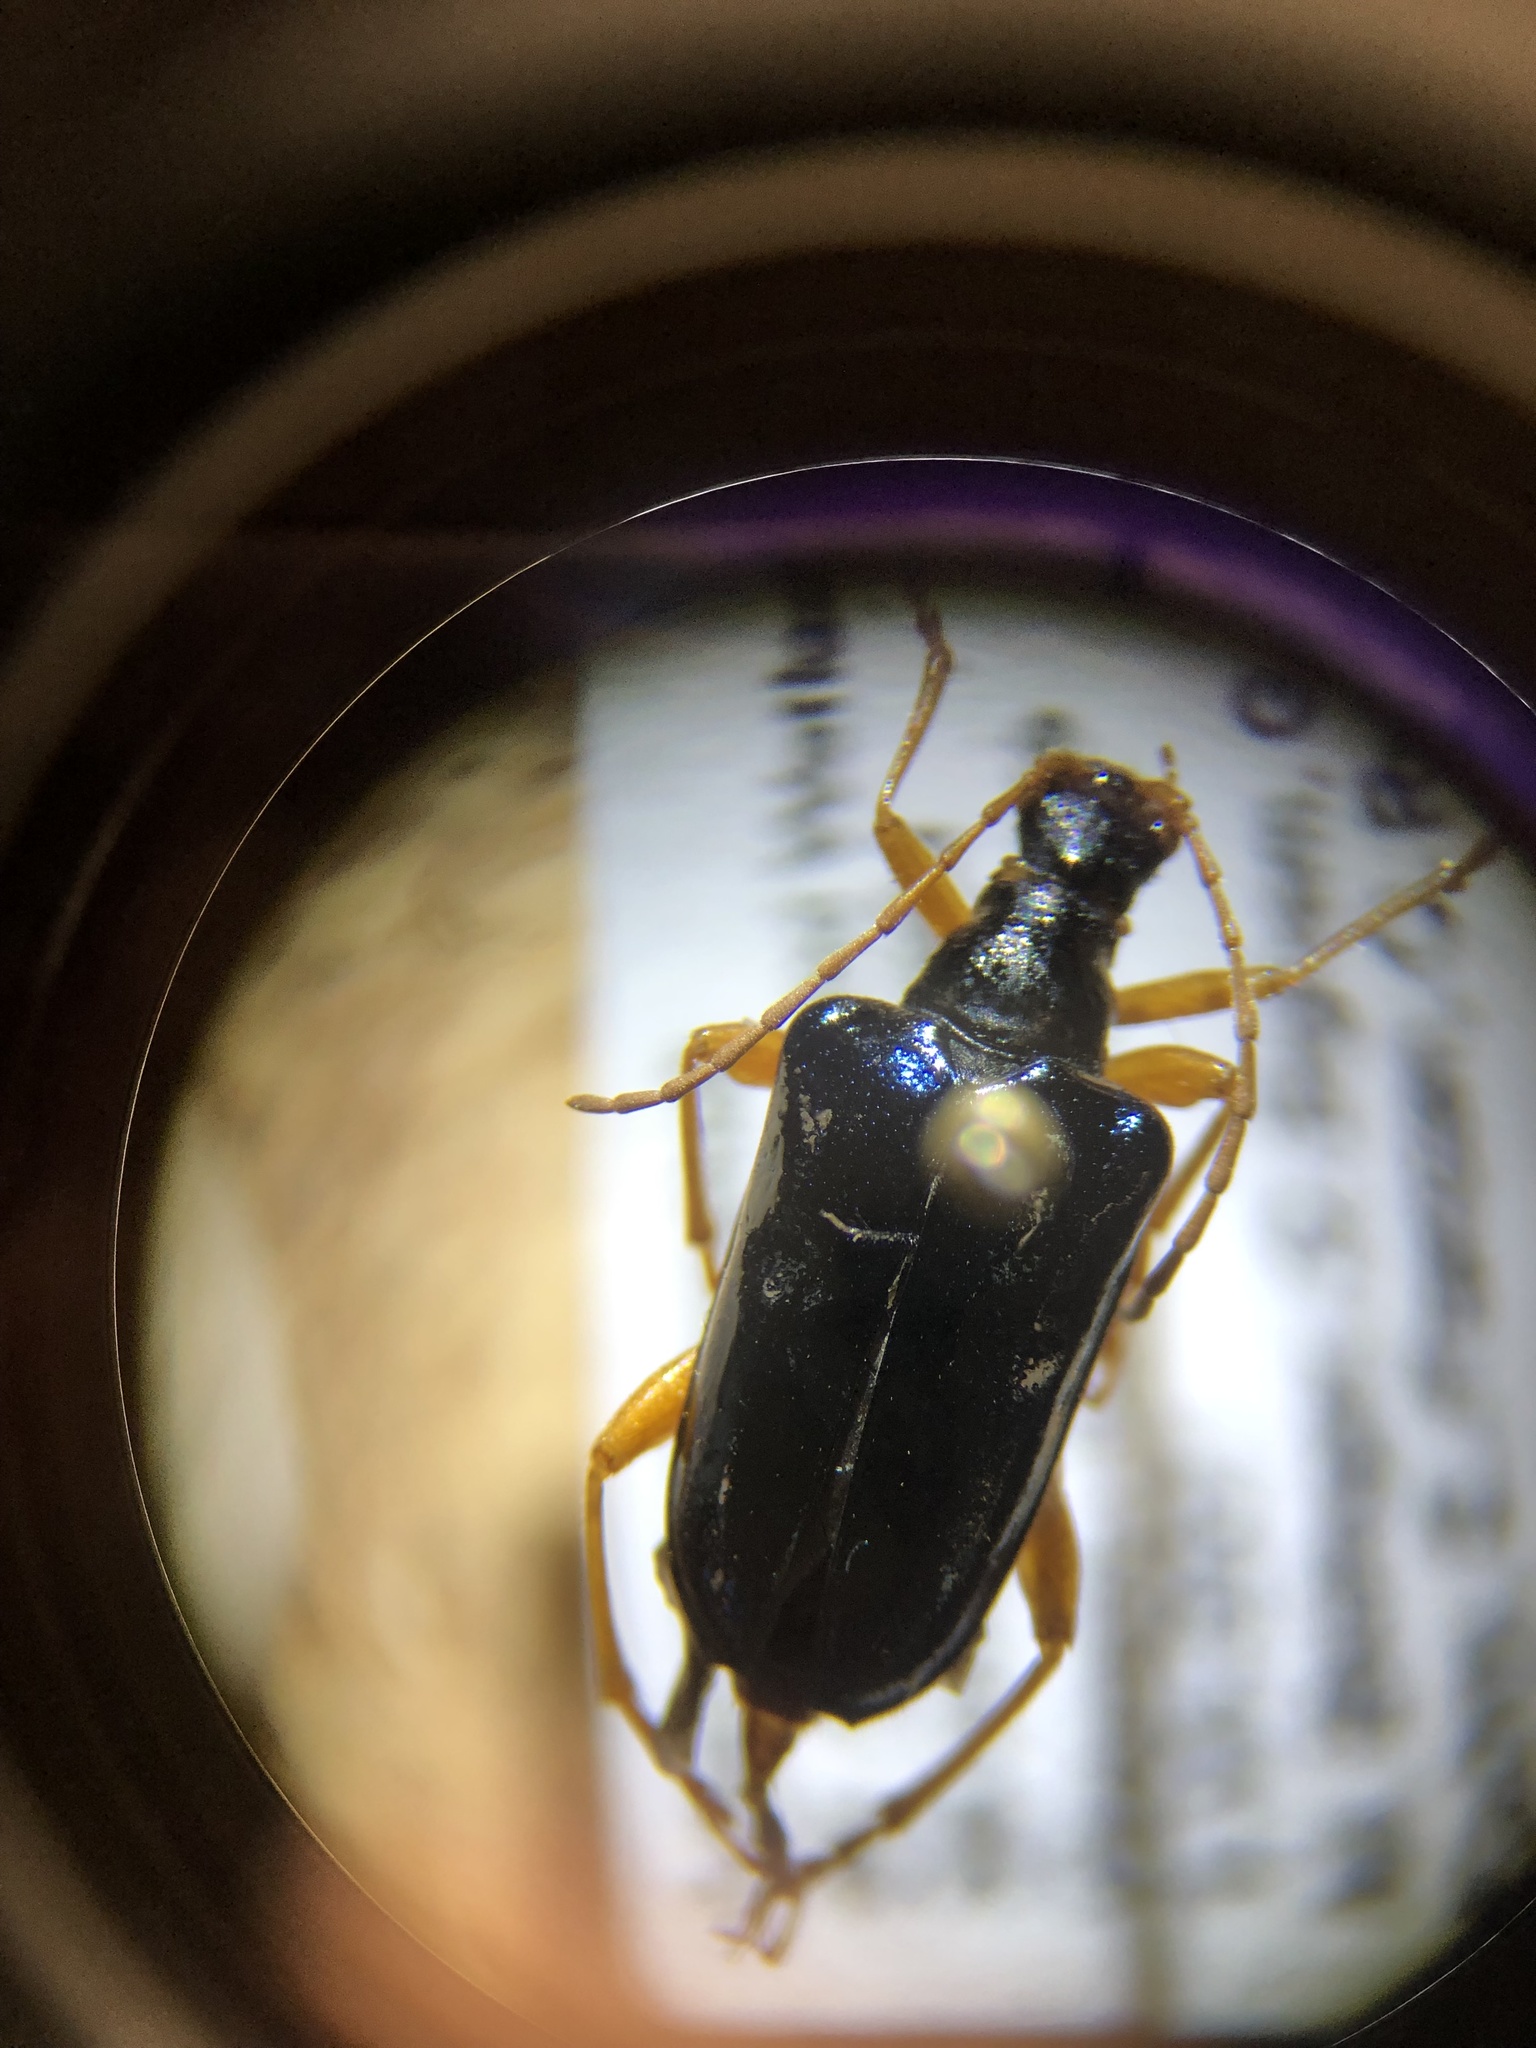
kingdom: Animalia
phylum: Arthropoda
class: Insecta
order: Coleoptera
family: Cerambycidae
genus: Gaurotes
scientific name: Gaurotes cyanipennis
